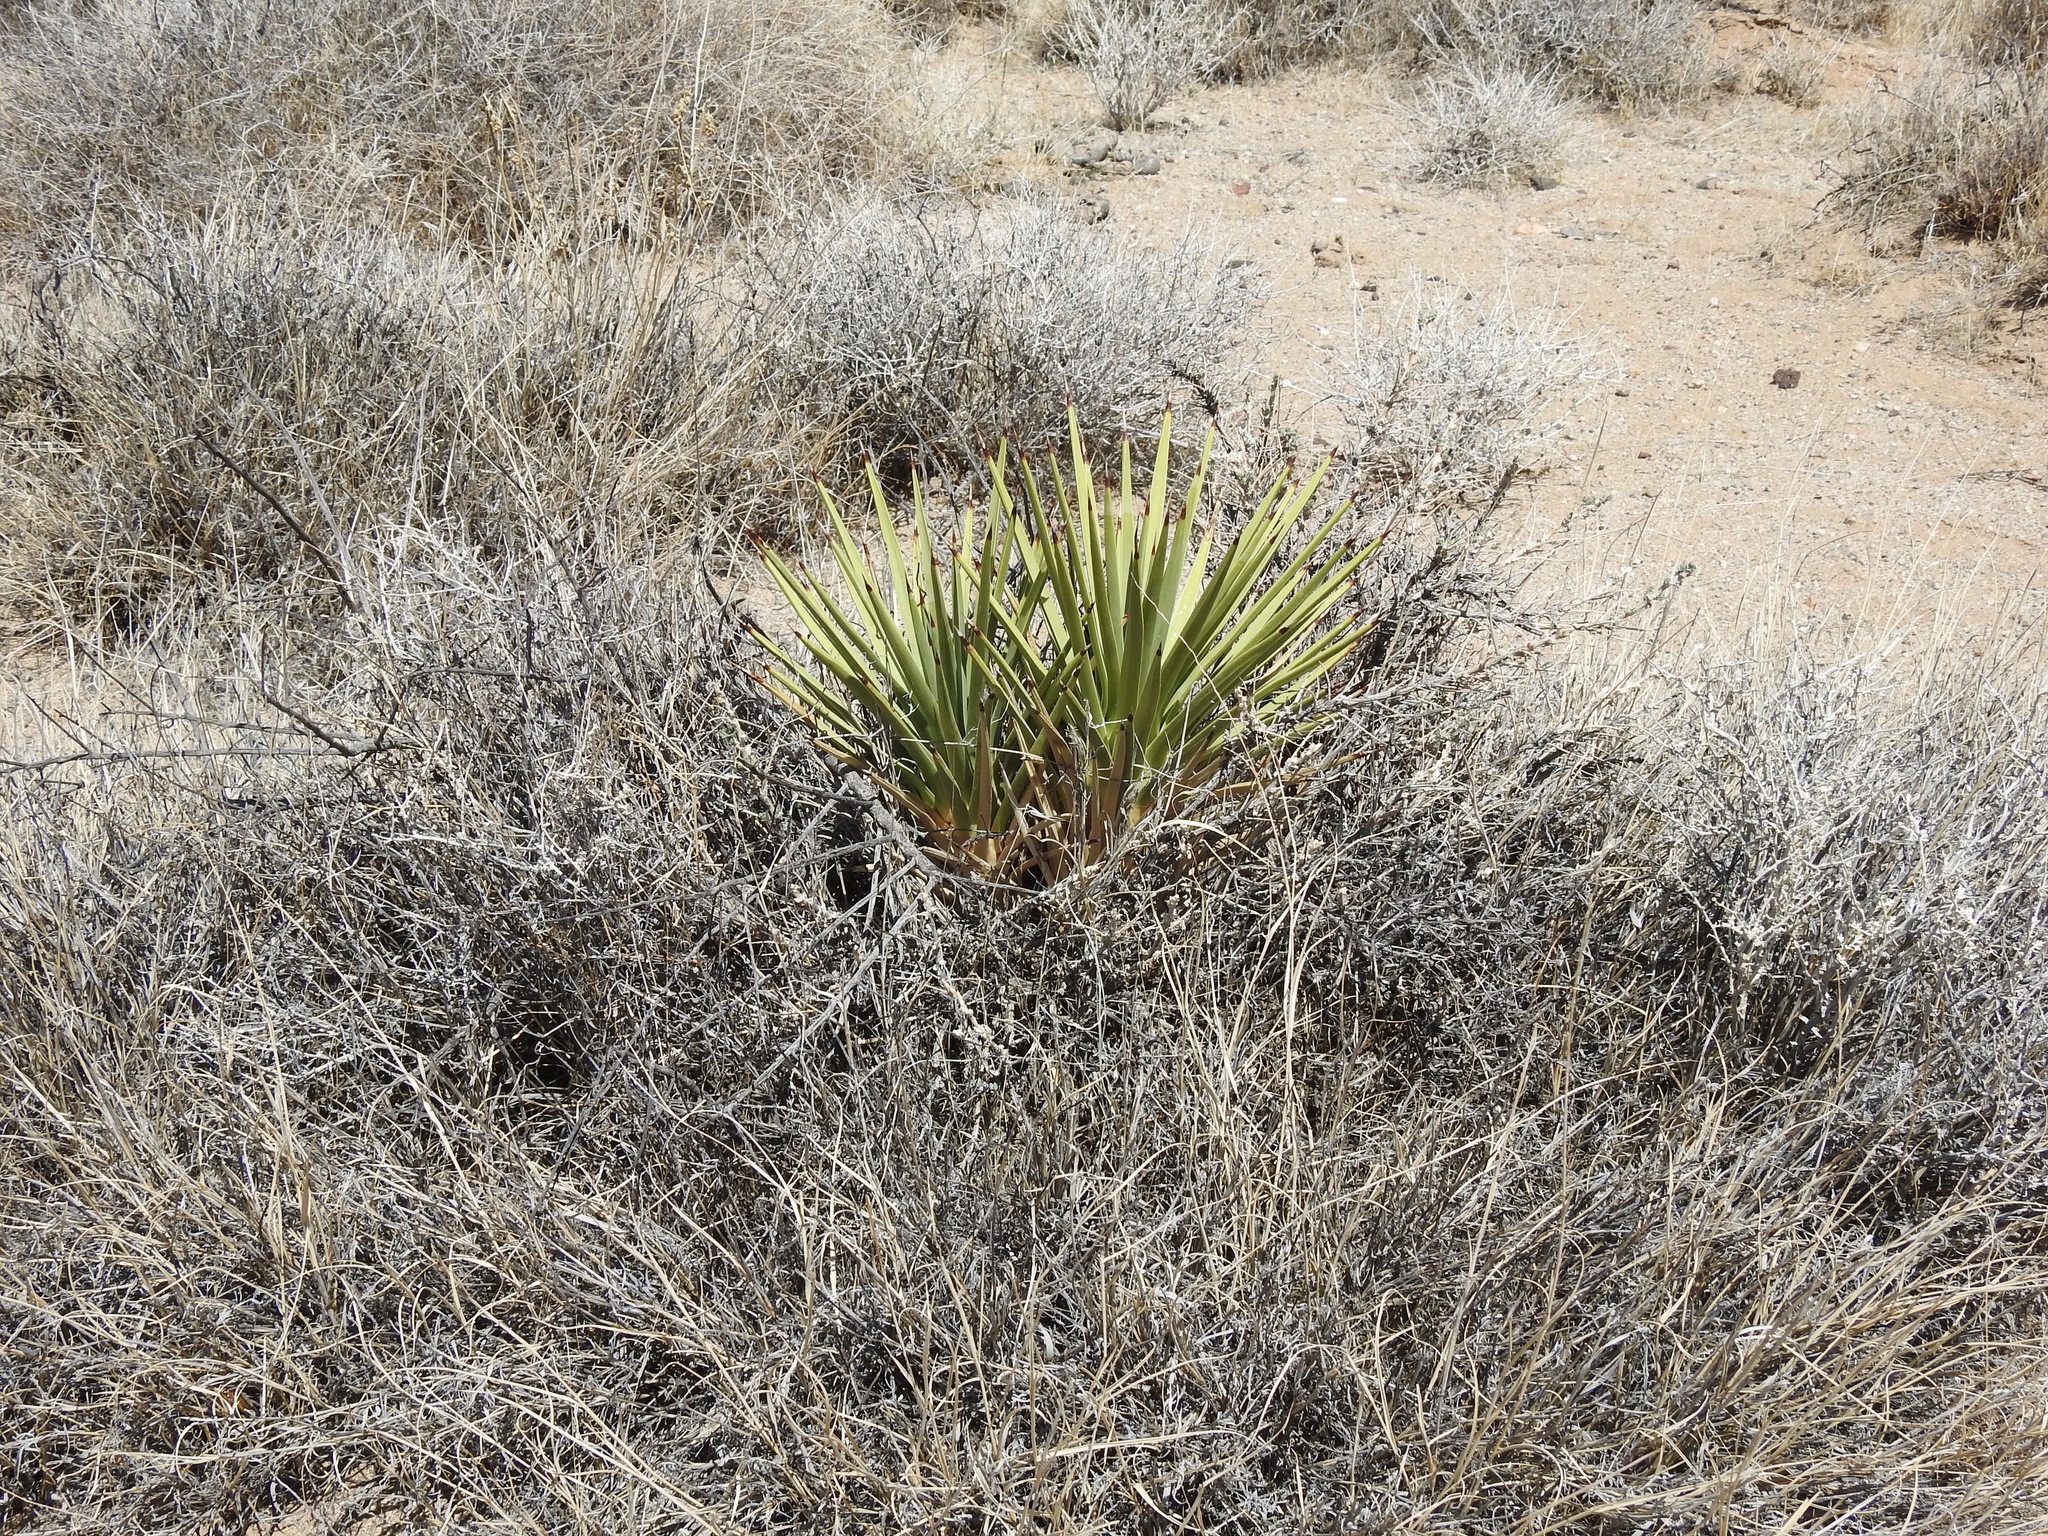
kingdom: Plantae
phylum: Tracheophyta
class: Liliopsida
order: Asparagales
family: Asparagaceae
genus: Yucca
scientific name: Yucca brevifolia
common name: Joshua tree
